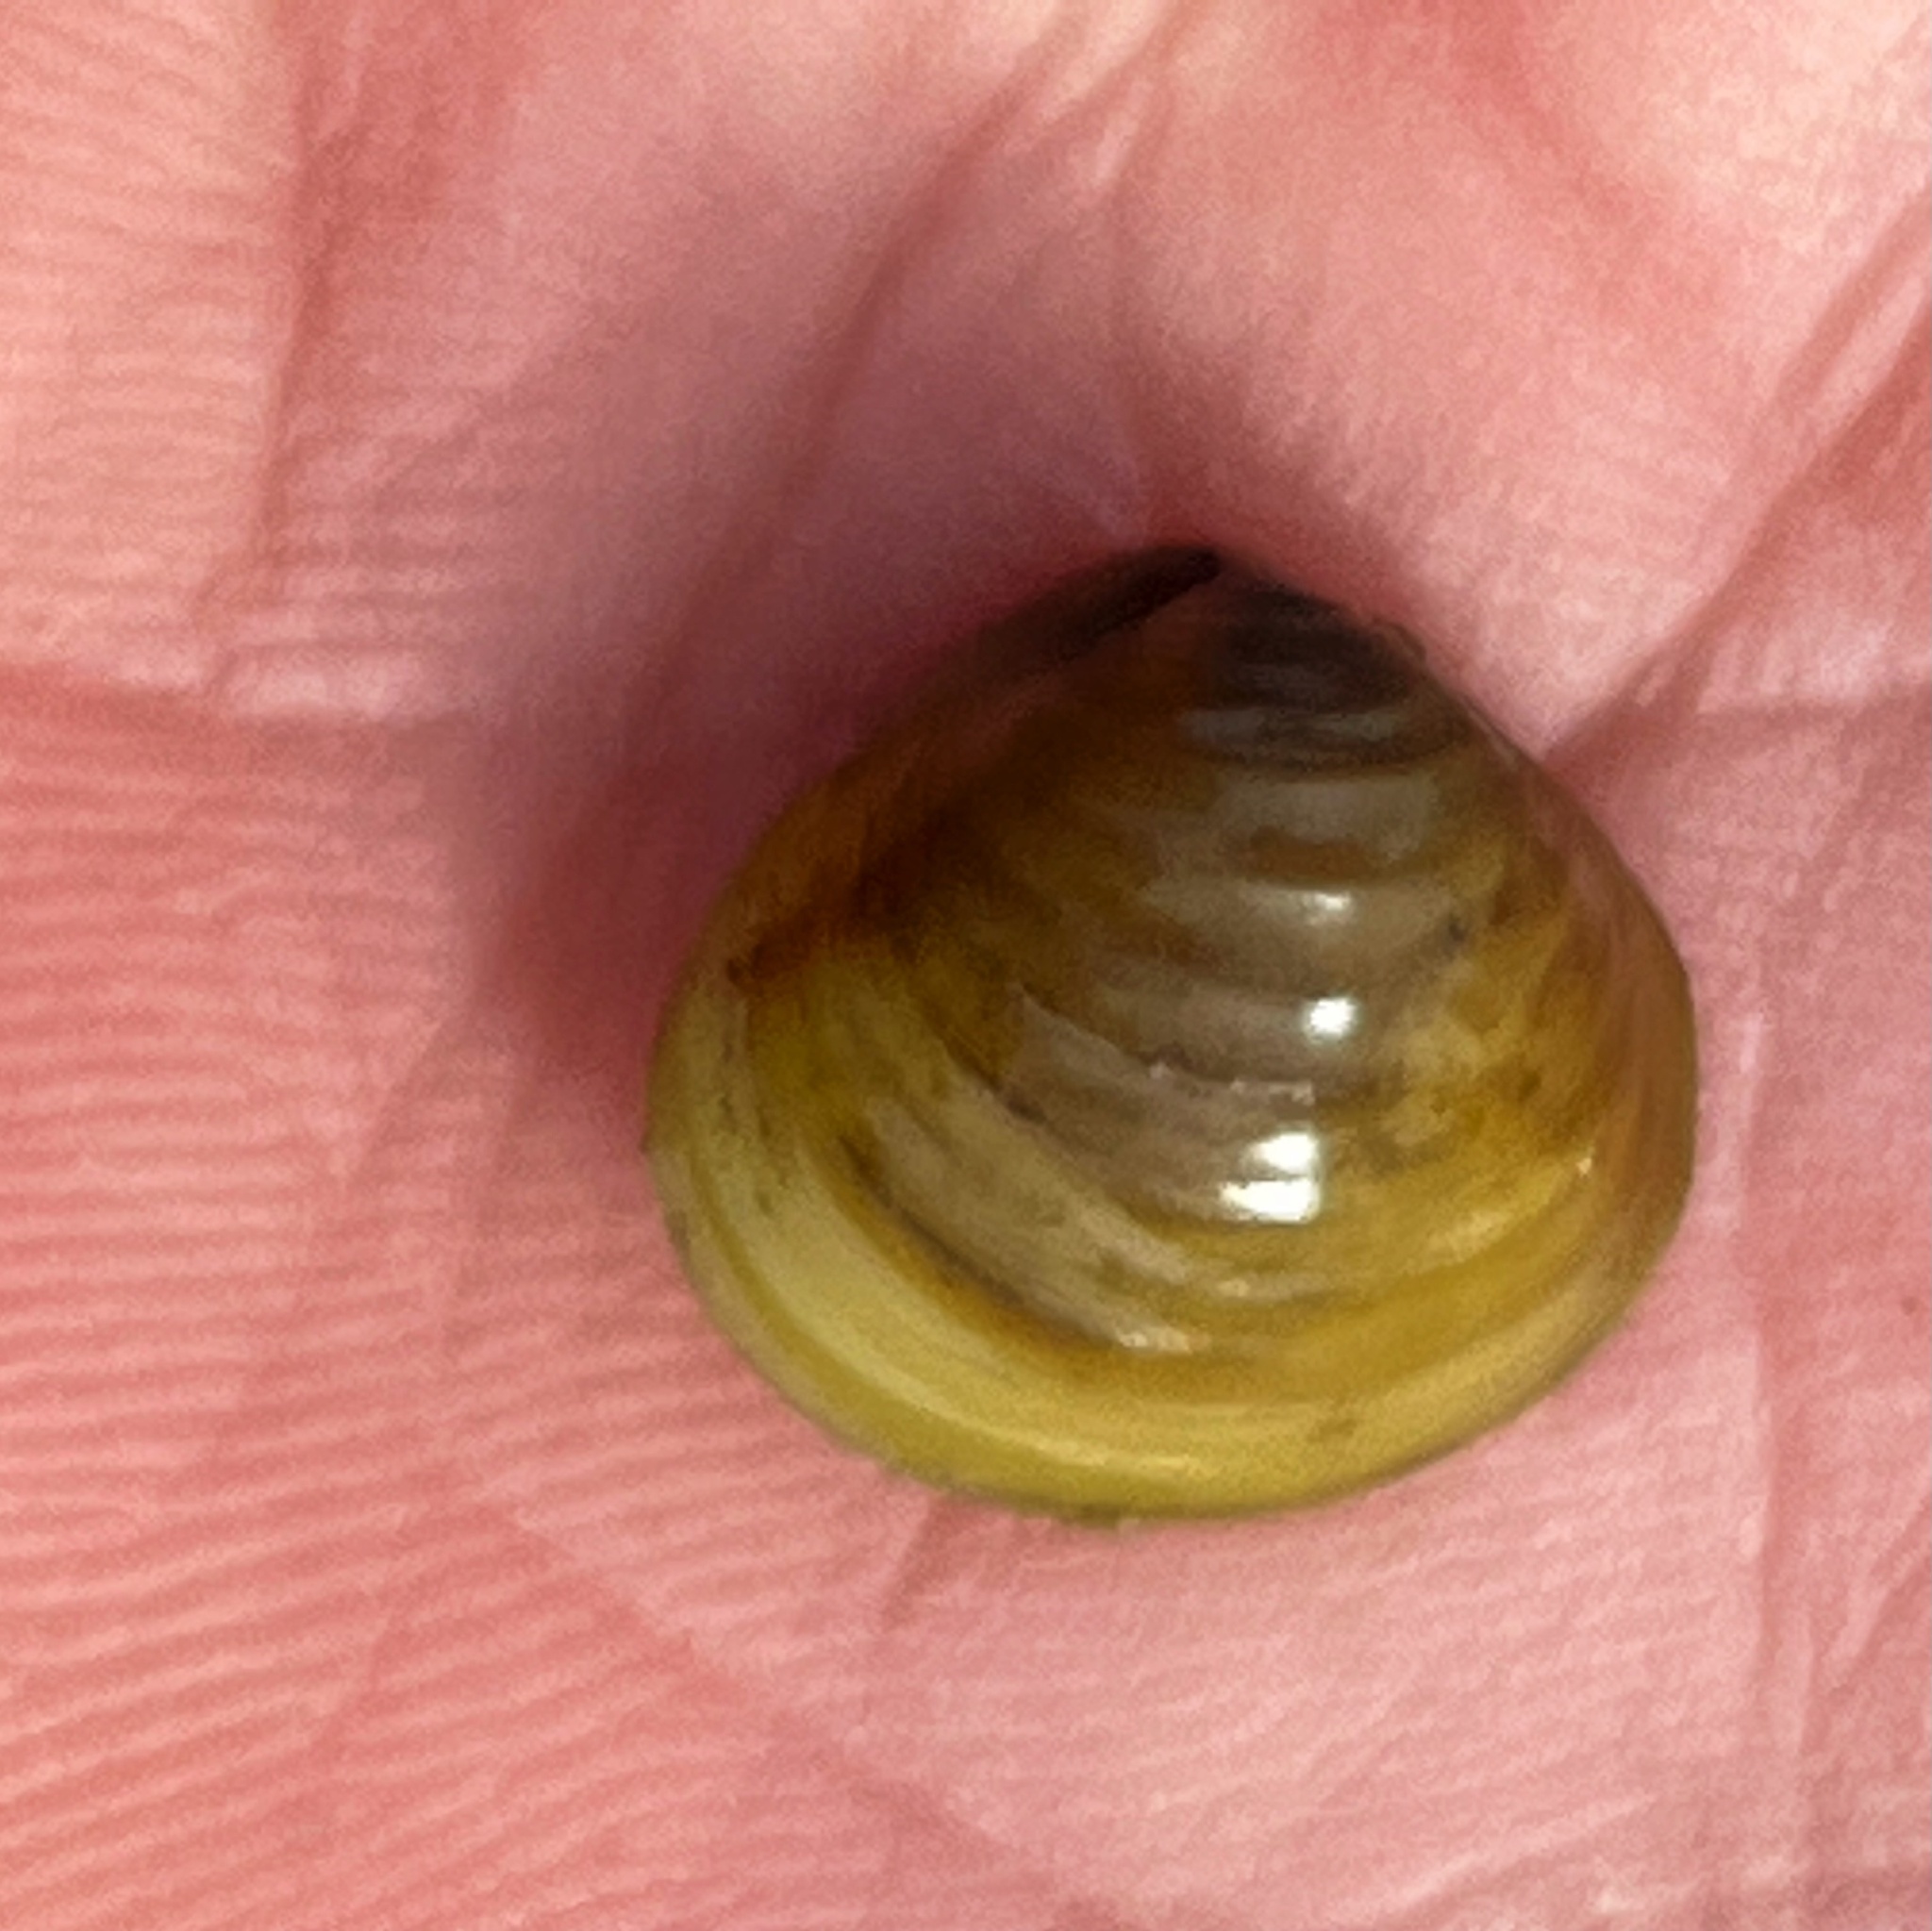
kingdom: Animalia
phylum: Mollusca
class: Bivalvia
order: Venerida
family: Cyrenidae
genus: Corbicula
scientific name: Corbicula fluminea
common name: Asian clam
